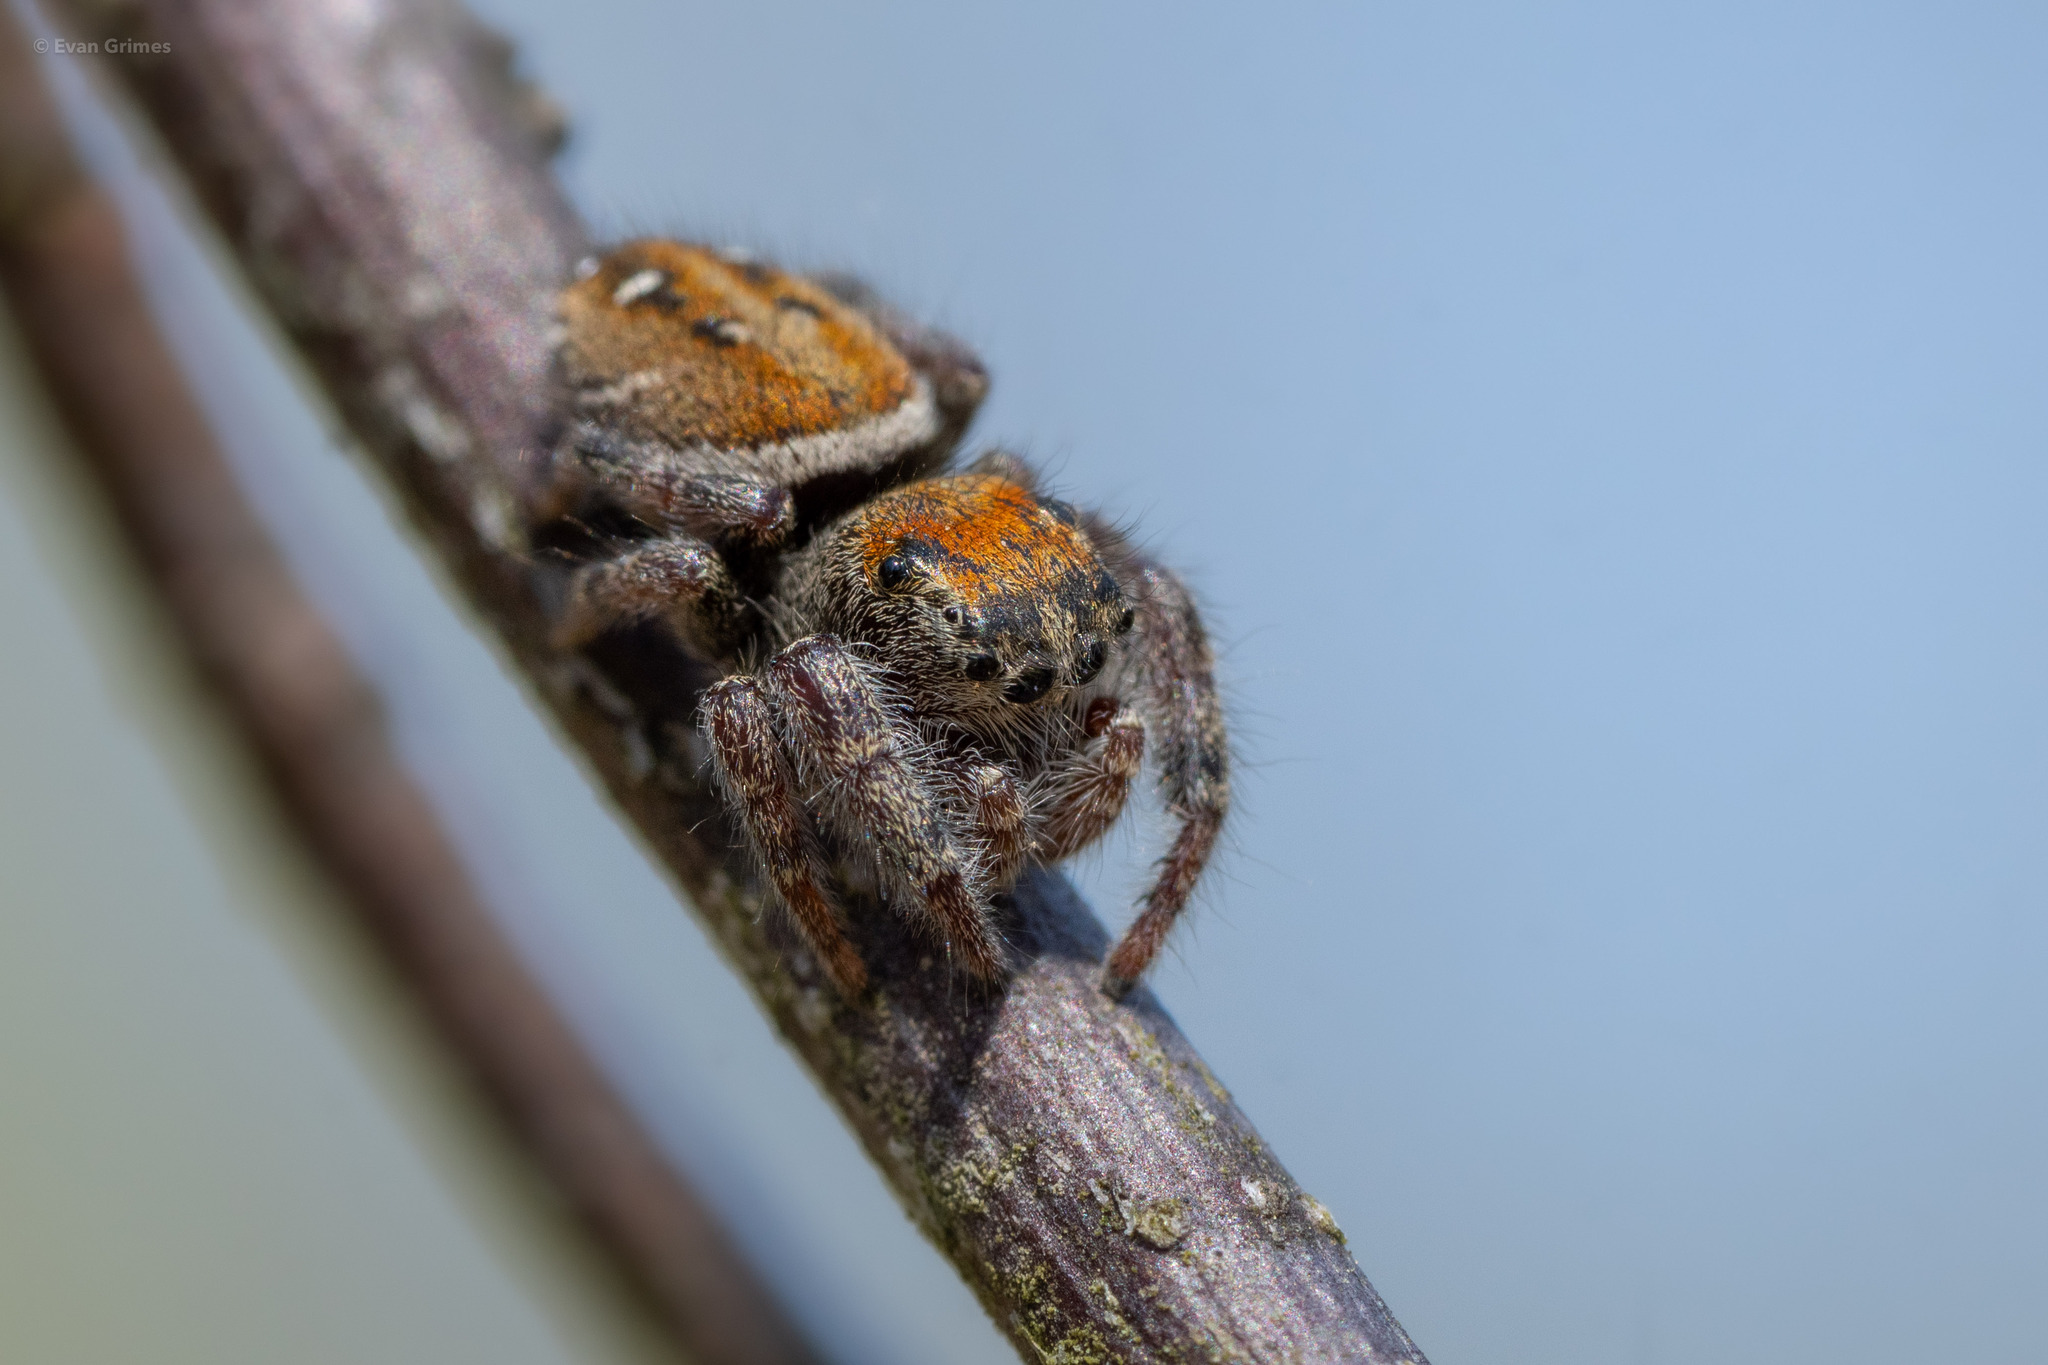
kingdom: Animalia
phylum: Arthropoda
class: Arachnida
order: Araneae
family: Salticidae
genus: Phidippus
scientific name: Phidippus whitmani
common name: Whitman's jumping spider
